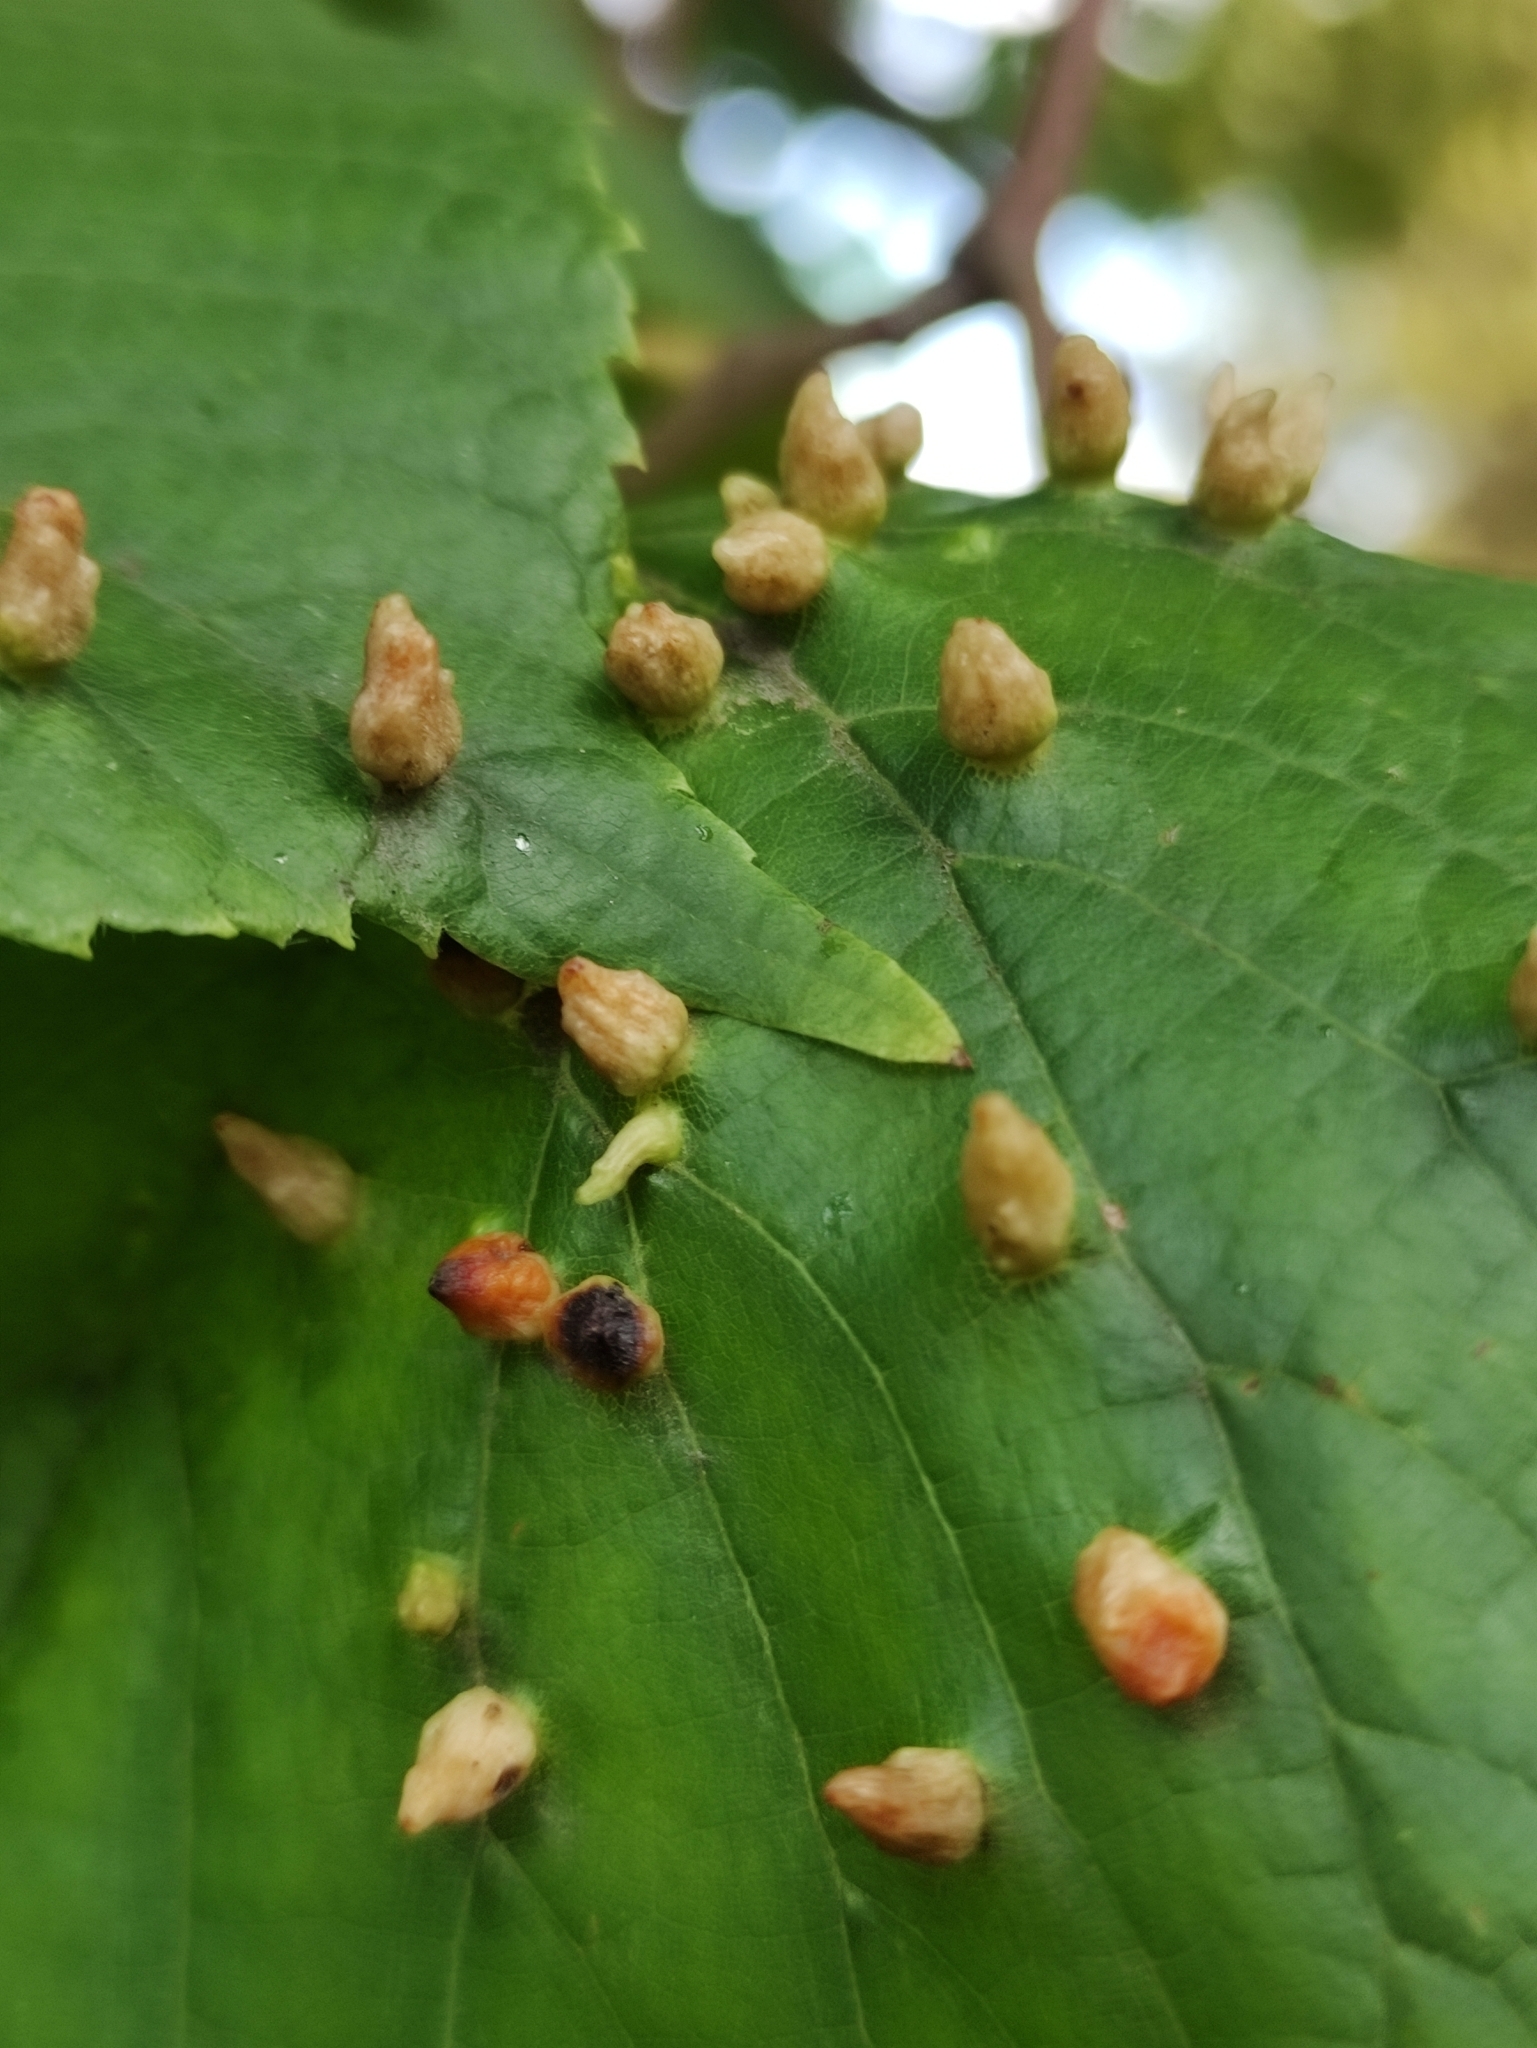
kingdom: Animalia
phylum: Arthropoda
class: Arachnida
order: Trombidiformes
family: Eriophyidae
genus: Eriophyes
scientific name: Eriophyes tiliae
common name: Red nail gall mite
